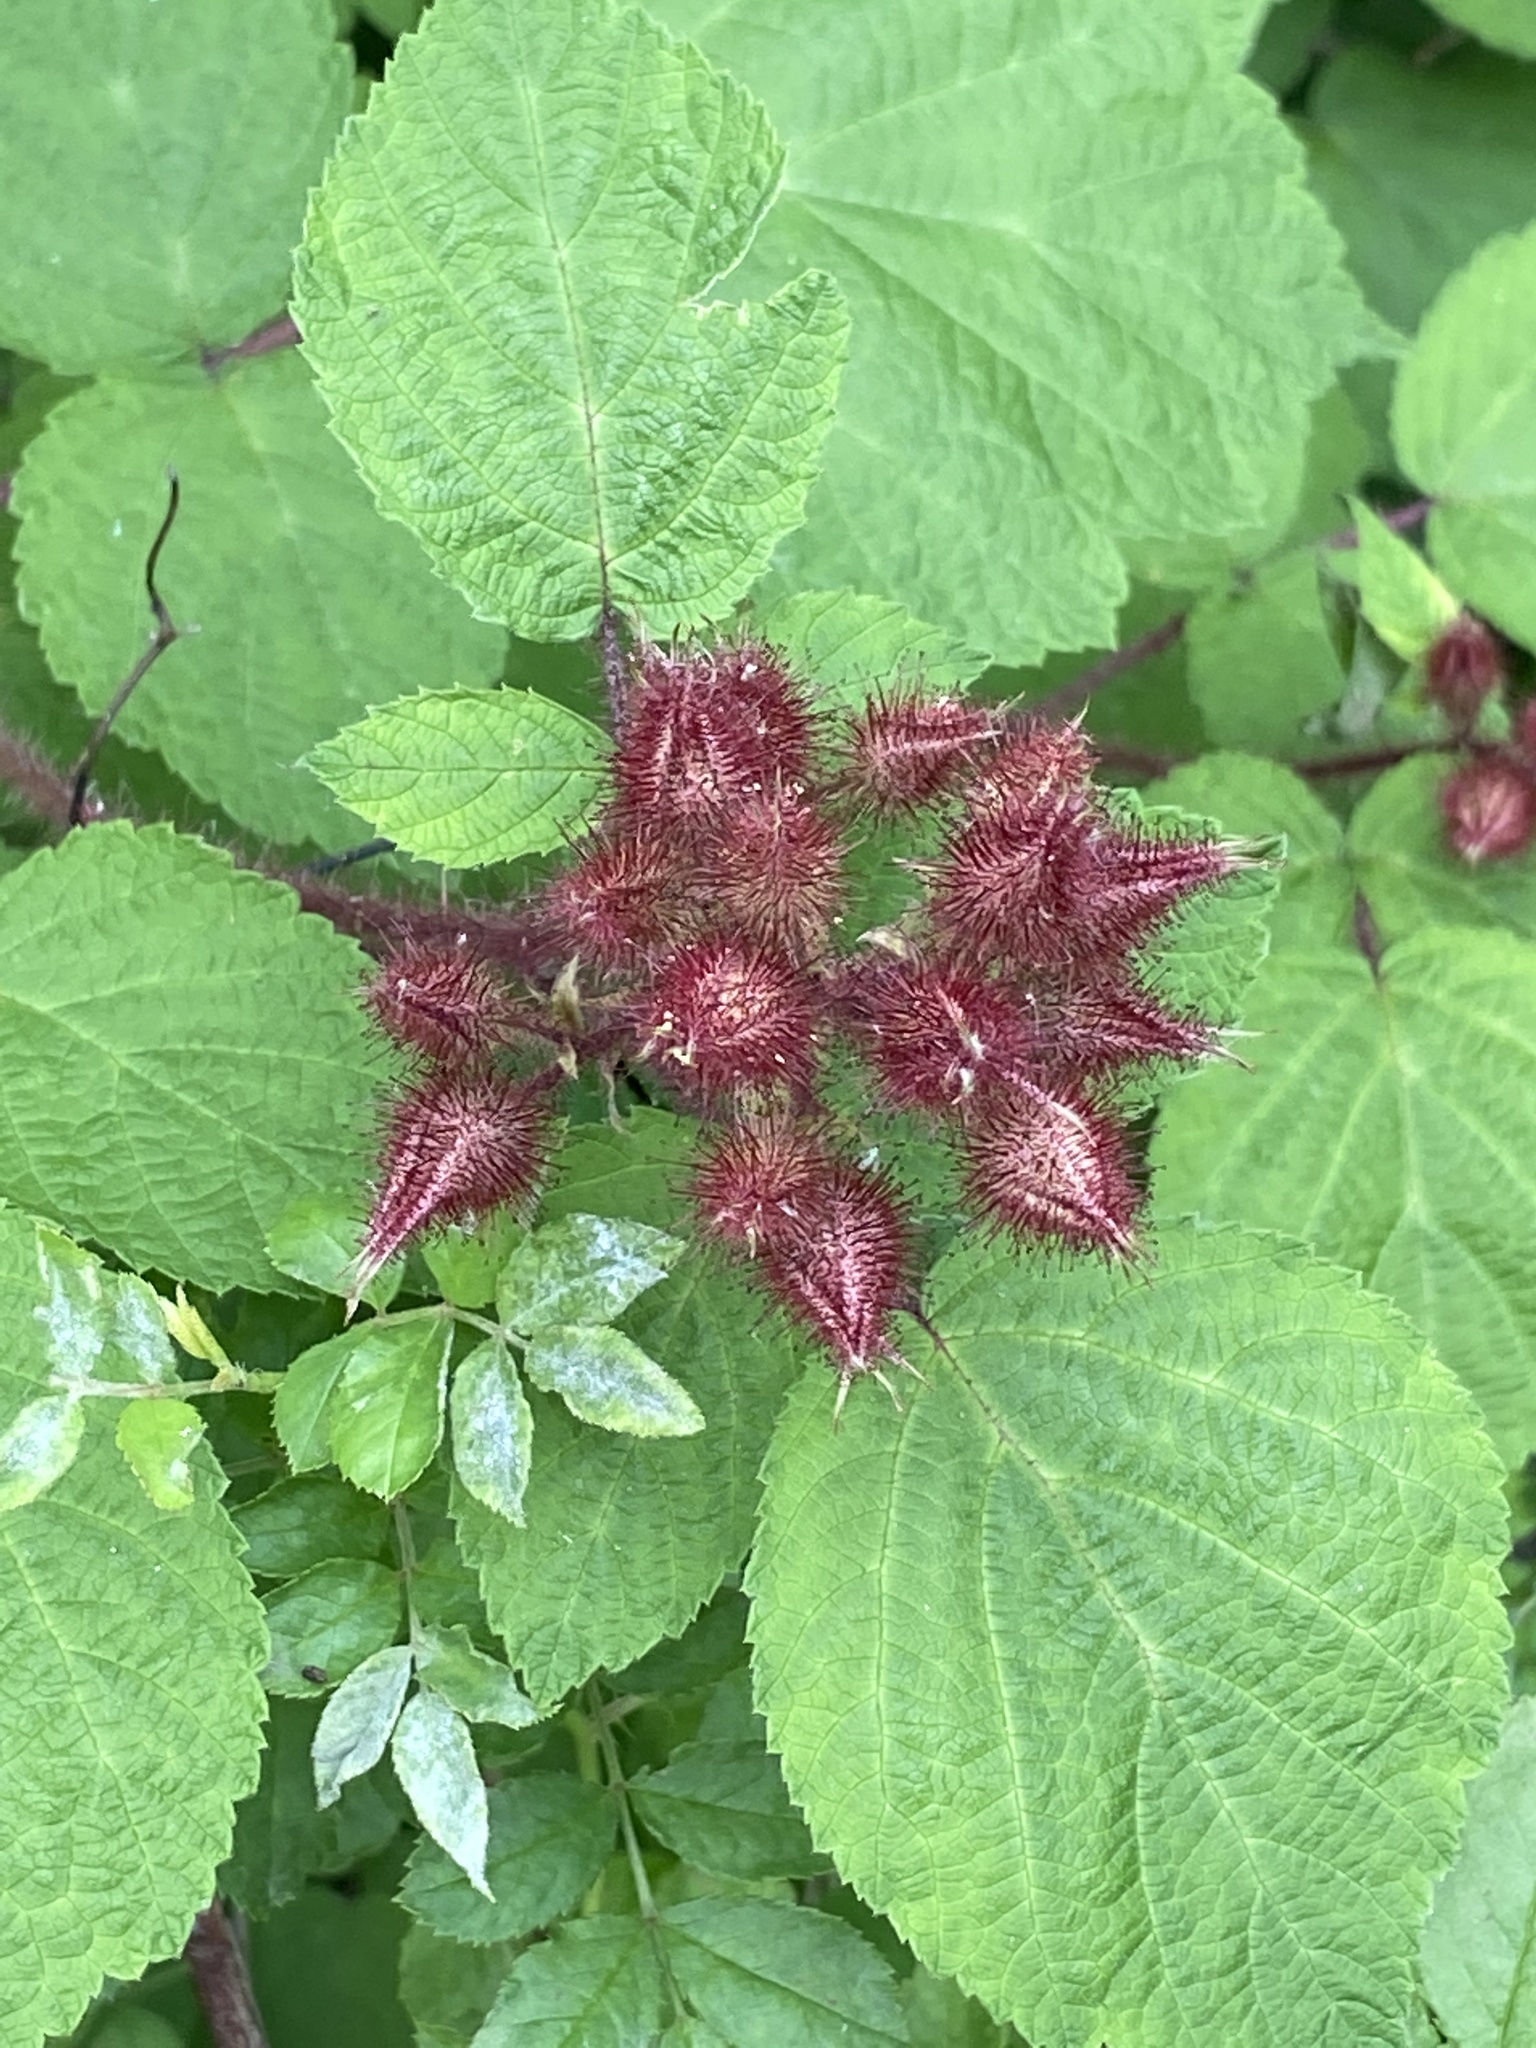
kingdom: Plantae
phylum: Tracheophyta
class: Magnoliopsida
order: Rosales
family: Rosaceae
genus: Rubus
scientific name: Rubus phoenicolasius
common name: Japanese wineberry
